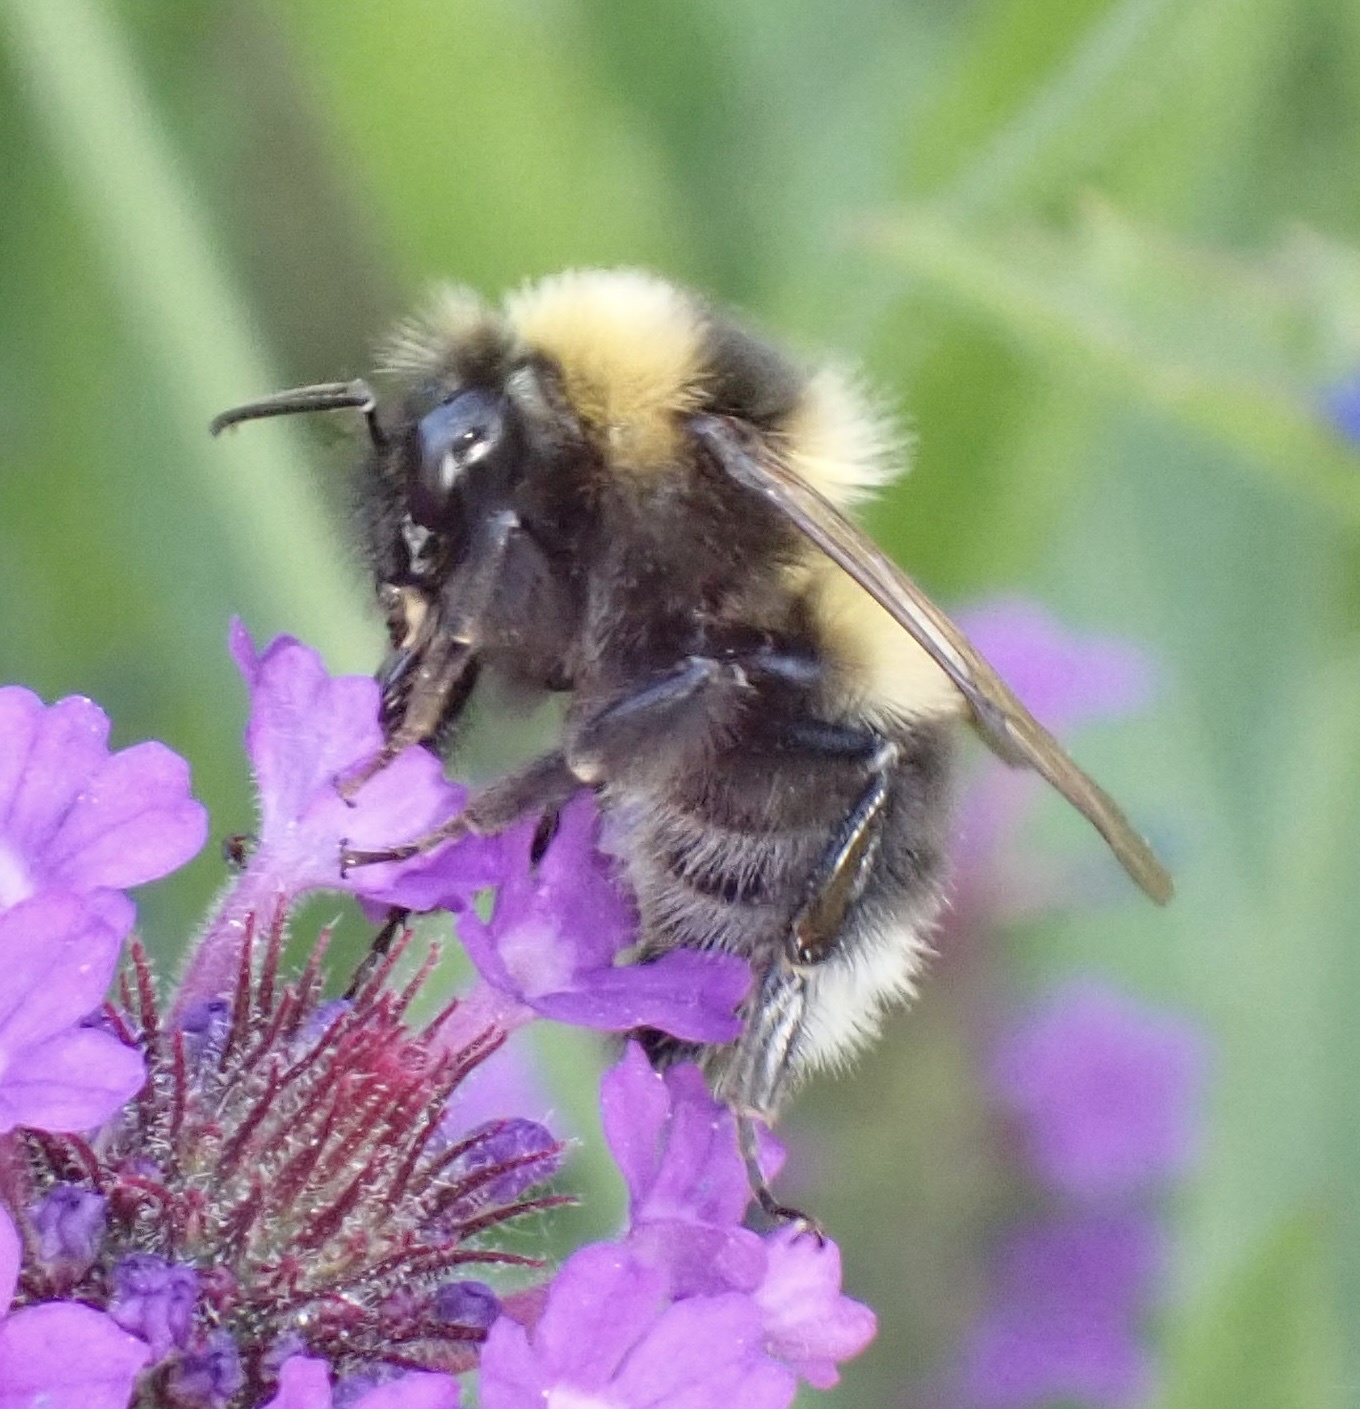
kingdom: Animalia
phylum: Arthropoda
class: Insecta
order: Hymenoptera
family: Apidae
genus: Bombus
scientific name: Bombus hortorum
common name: Garden bumblebee
